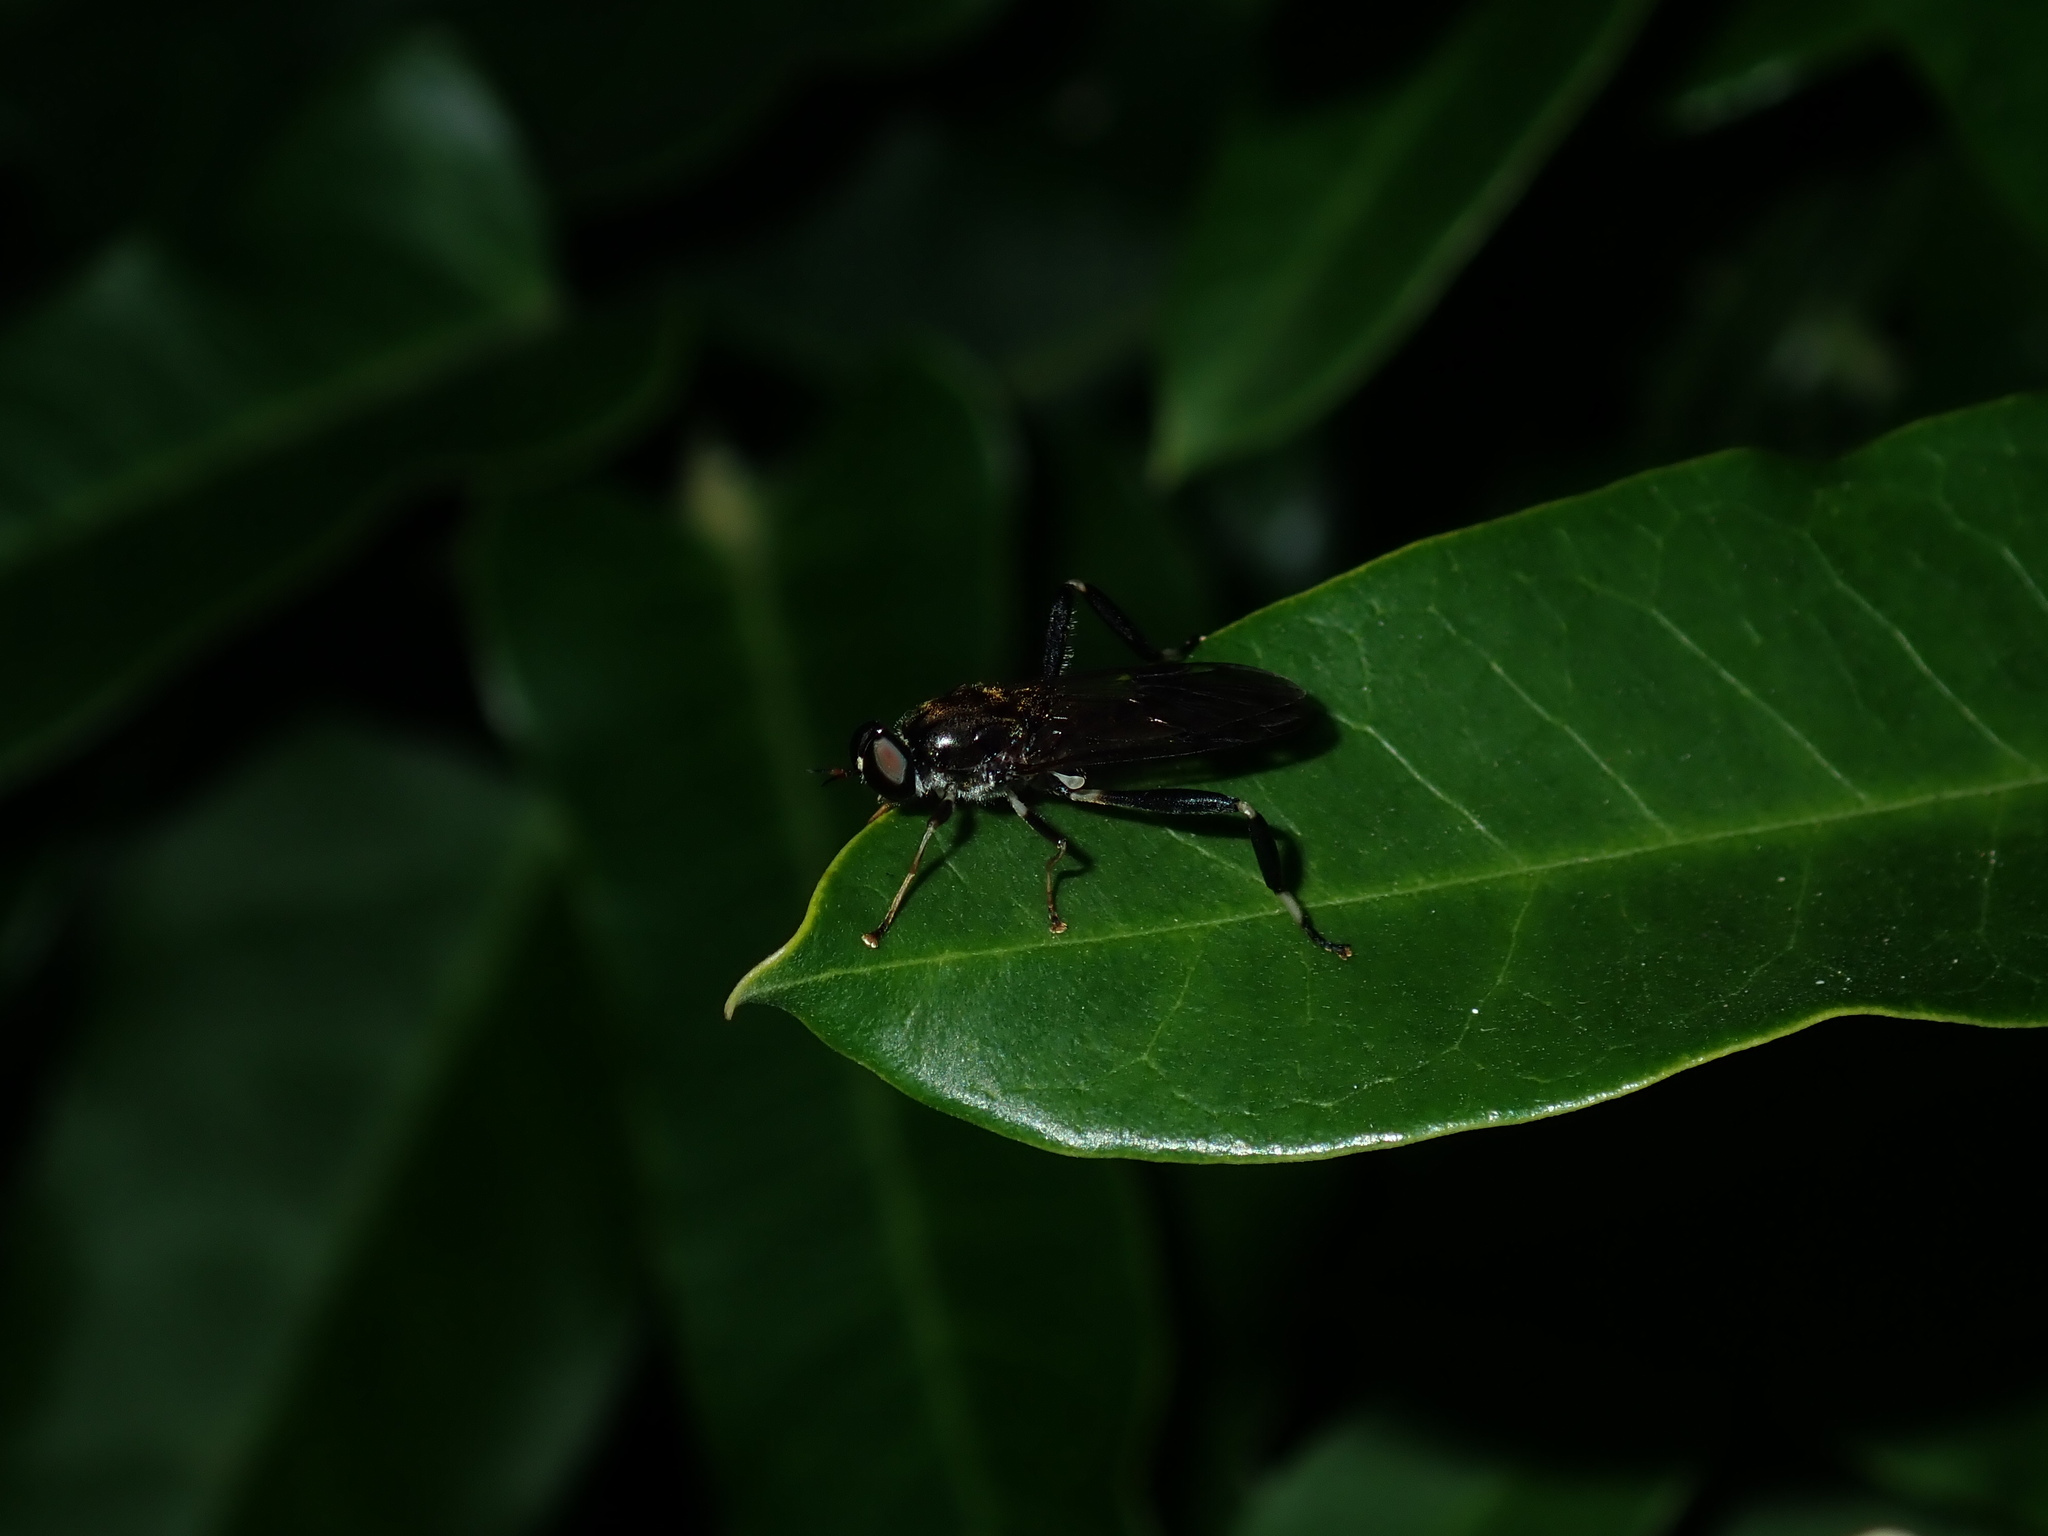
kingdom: Animalia
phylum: Arthropoda
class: Insecta
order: Diptera
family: Stratiomyidae
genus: Exaireta
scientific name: Exaireta spinigera
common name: Blue soldier fly
